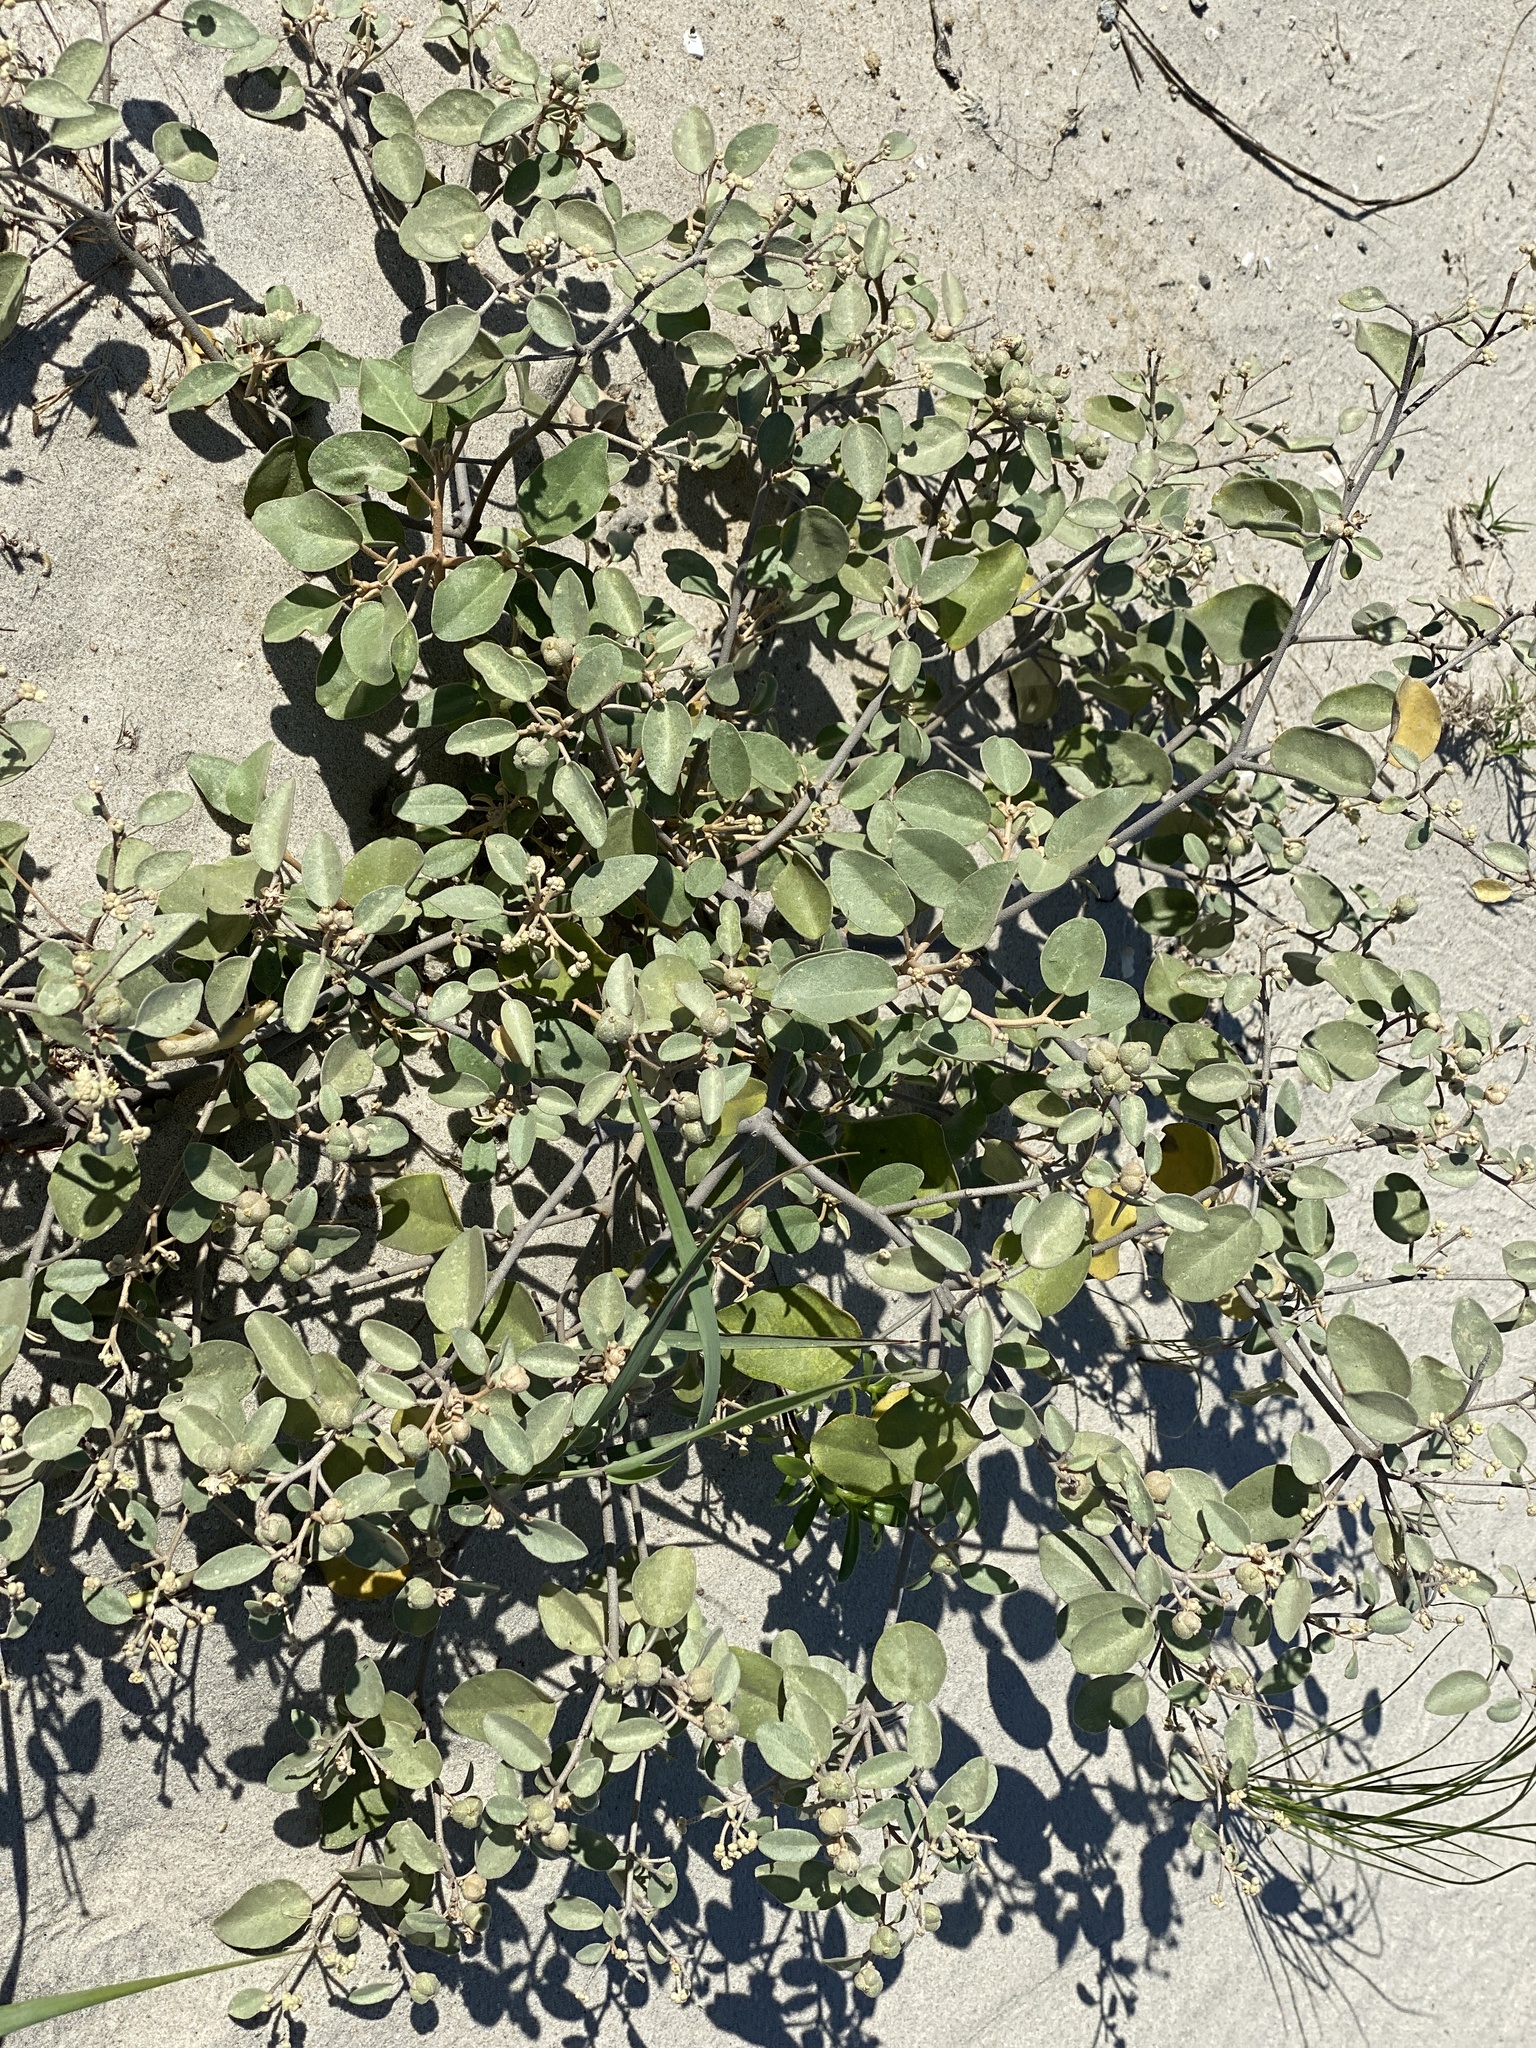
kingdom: Plantae
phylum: Tracheophyta
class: Magnoliopsida
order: Malpighiales
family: Euphorbiaceae
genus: Croton
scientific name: Croton punctatus
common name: Beach-tea
